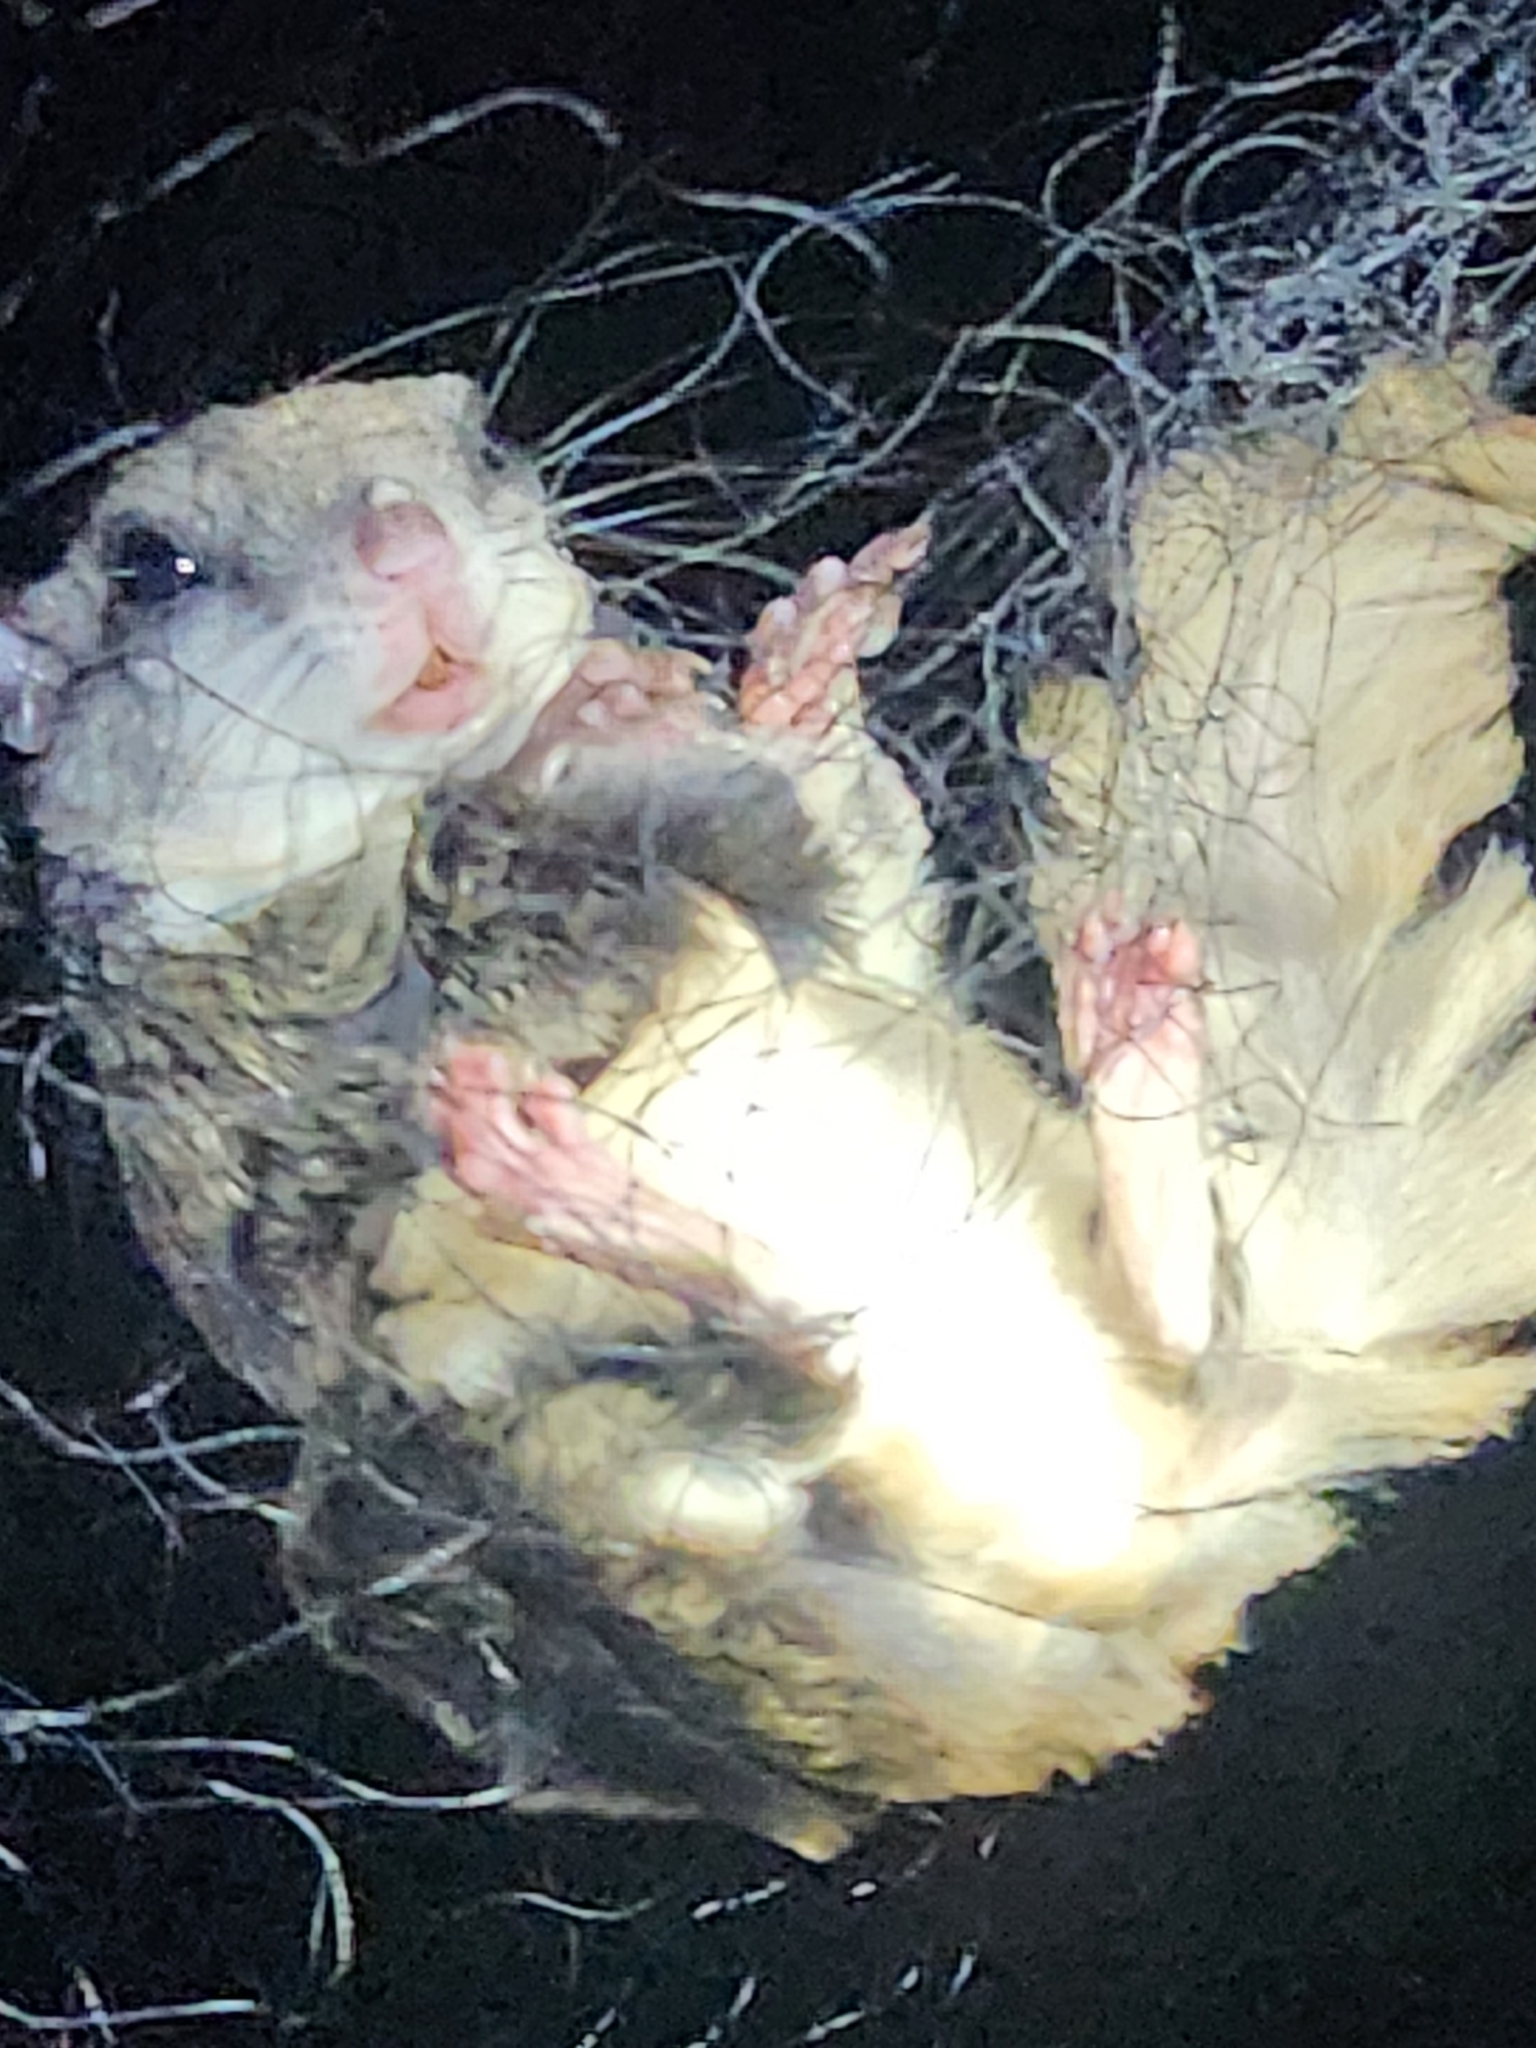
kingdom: Animalia
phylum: Chordata
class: Mammalia
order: Rodentia
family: Sciuridae
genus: Glaucomys
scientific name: Glaucomys volans
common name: Southern flying squirrel
